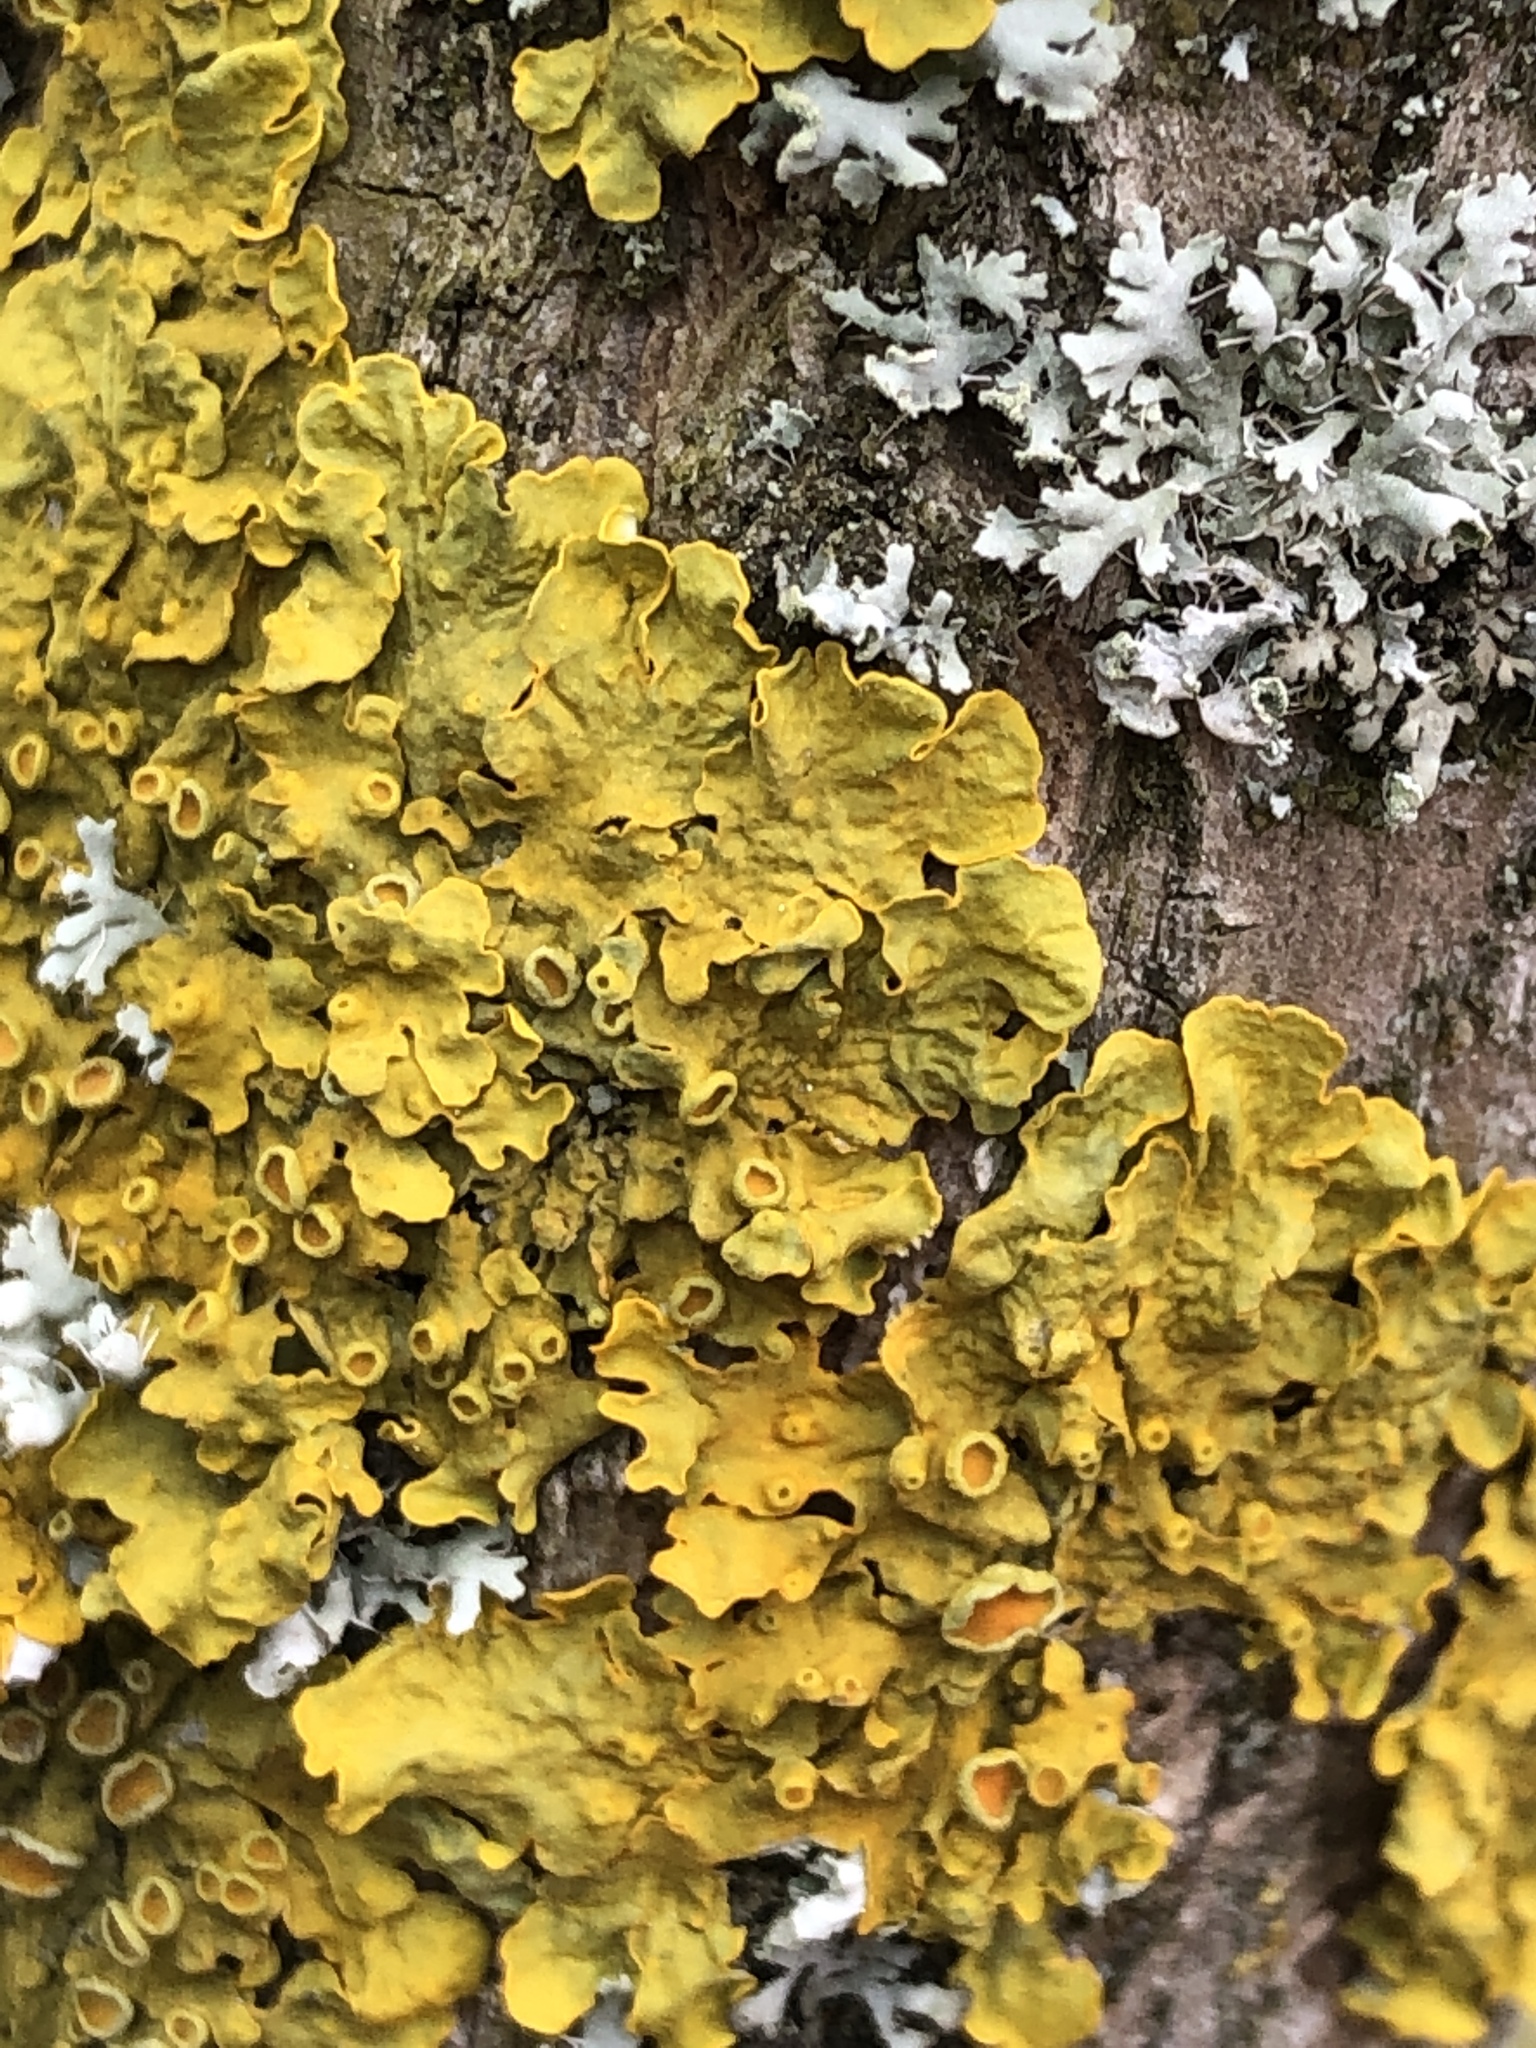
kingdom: Fungi
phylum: Ascomycota
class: Lecanoromycetes
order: Teloschistales
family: Teloschistaceae
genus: Xanthoria
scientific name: Xanthoria parietina
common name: Common orange lichen
